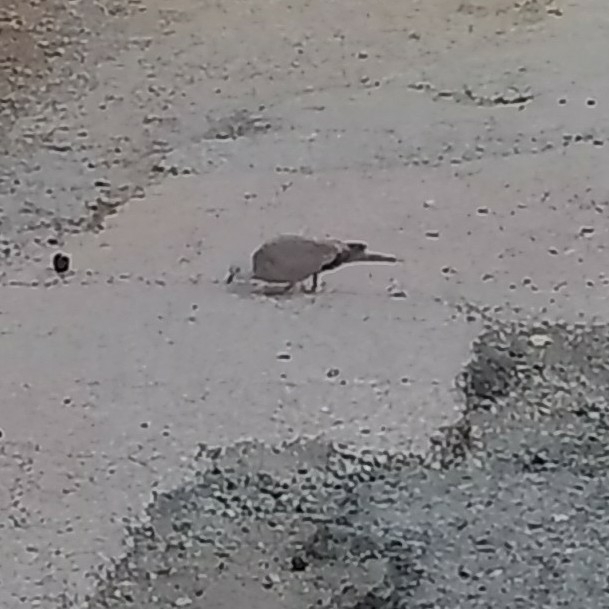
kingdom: Animalia
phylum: Chordata
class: Aves
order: Columbiformes
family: Columbidae
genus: Streptopelia
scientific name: Streptopelia decaocto
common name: Eurasian collared dove
